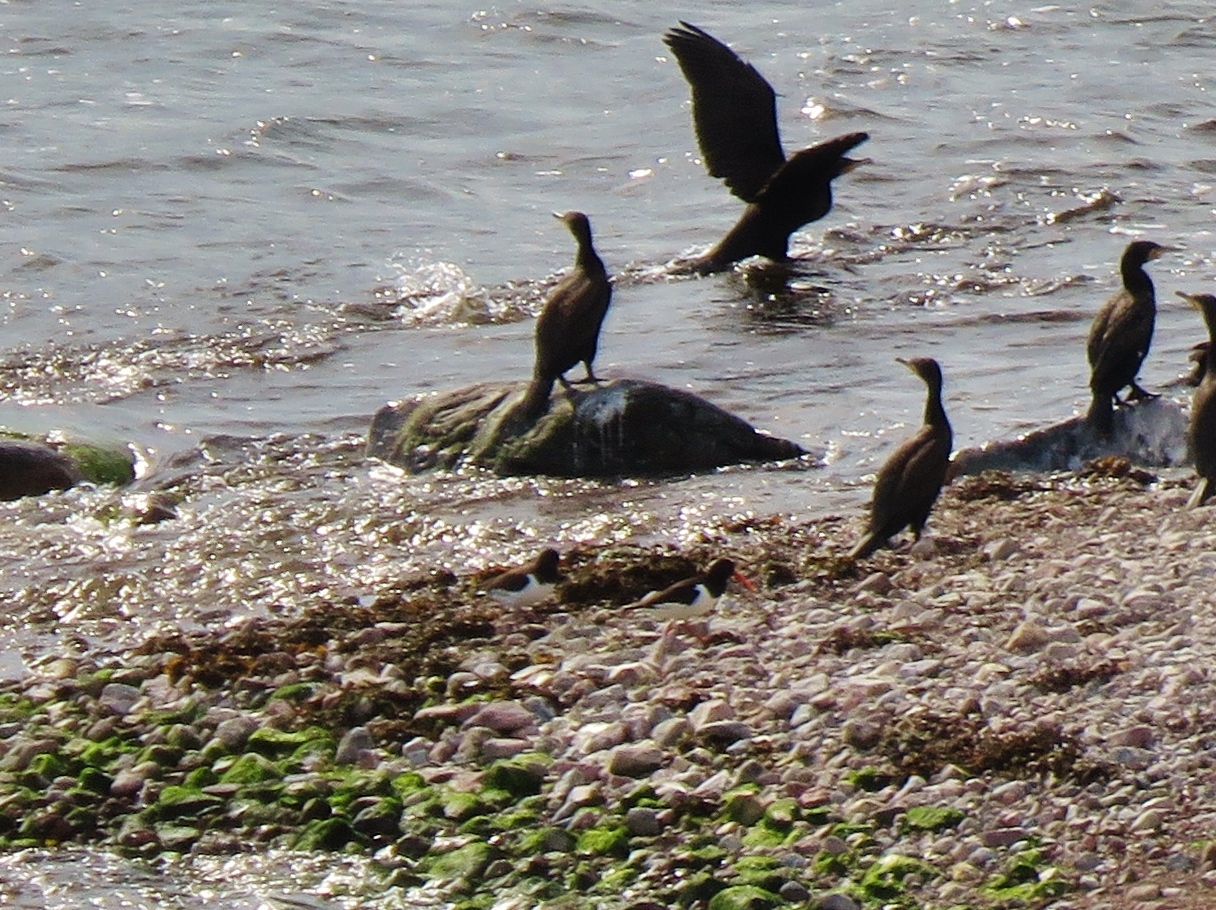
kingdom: Animalia
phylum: Chordata
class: Aves
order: Charadriiformes
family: Haematopodidae
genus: Haematopus
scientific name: Haematopus ostralegus
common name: Eurasian oystercatcher
